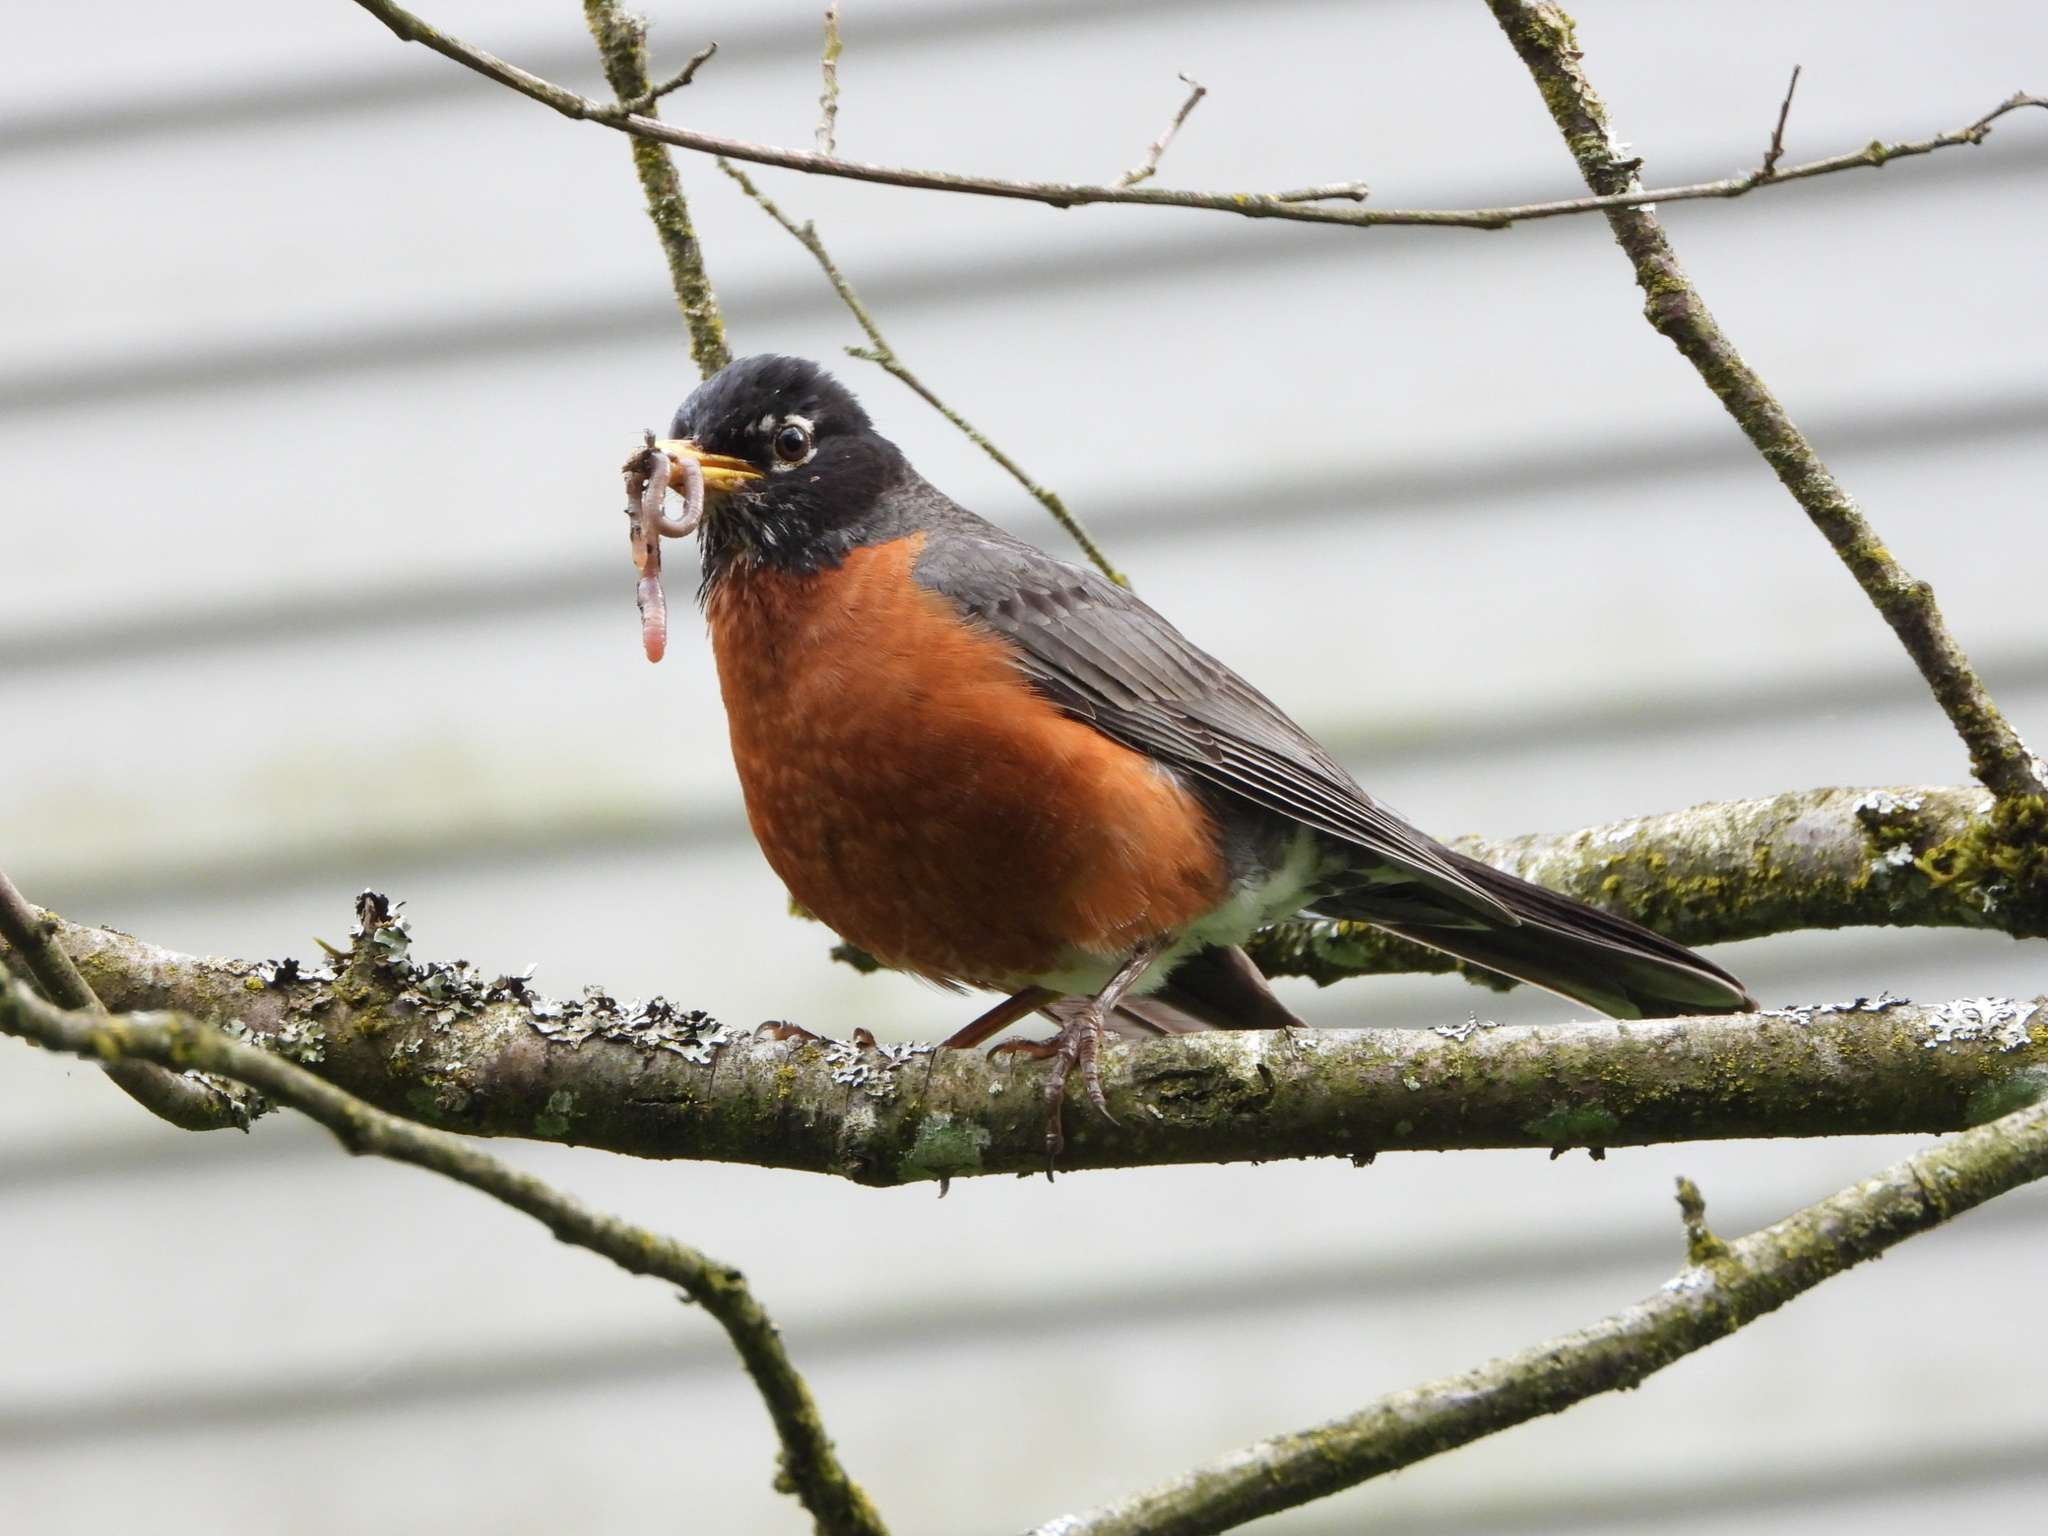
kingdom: Animalia
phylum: Chordata
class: Aves
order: Passeriformes
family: Turdidae
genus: Turdus
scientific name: Turdus migratorius
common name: American robin
